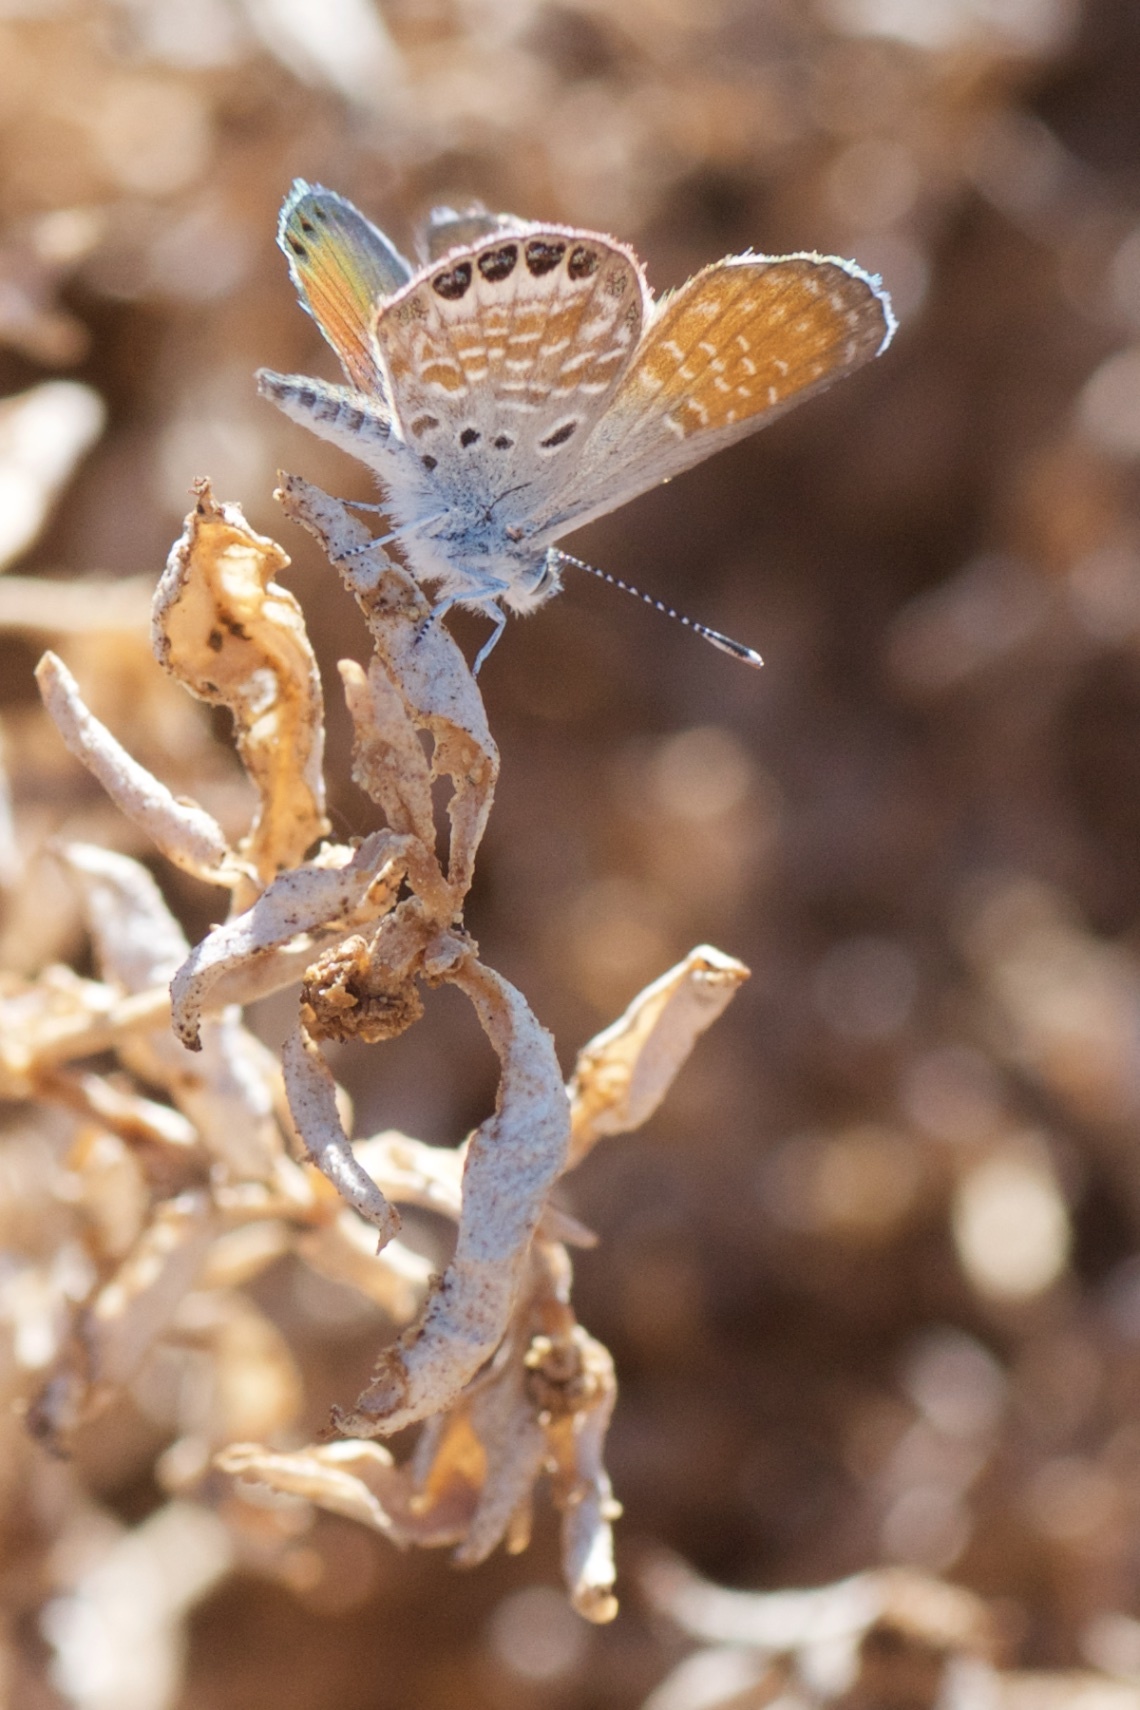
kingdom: Animalia
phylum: Arthropoda
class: Insecta
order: Lepidoptera
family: Lycaenidae
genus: Brephidium
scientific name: Brephidium exilis
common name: Pygmy blue
